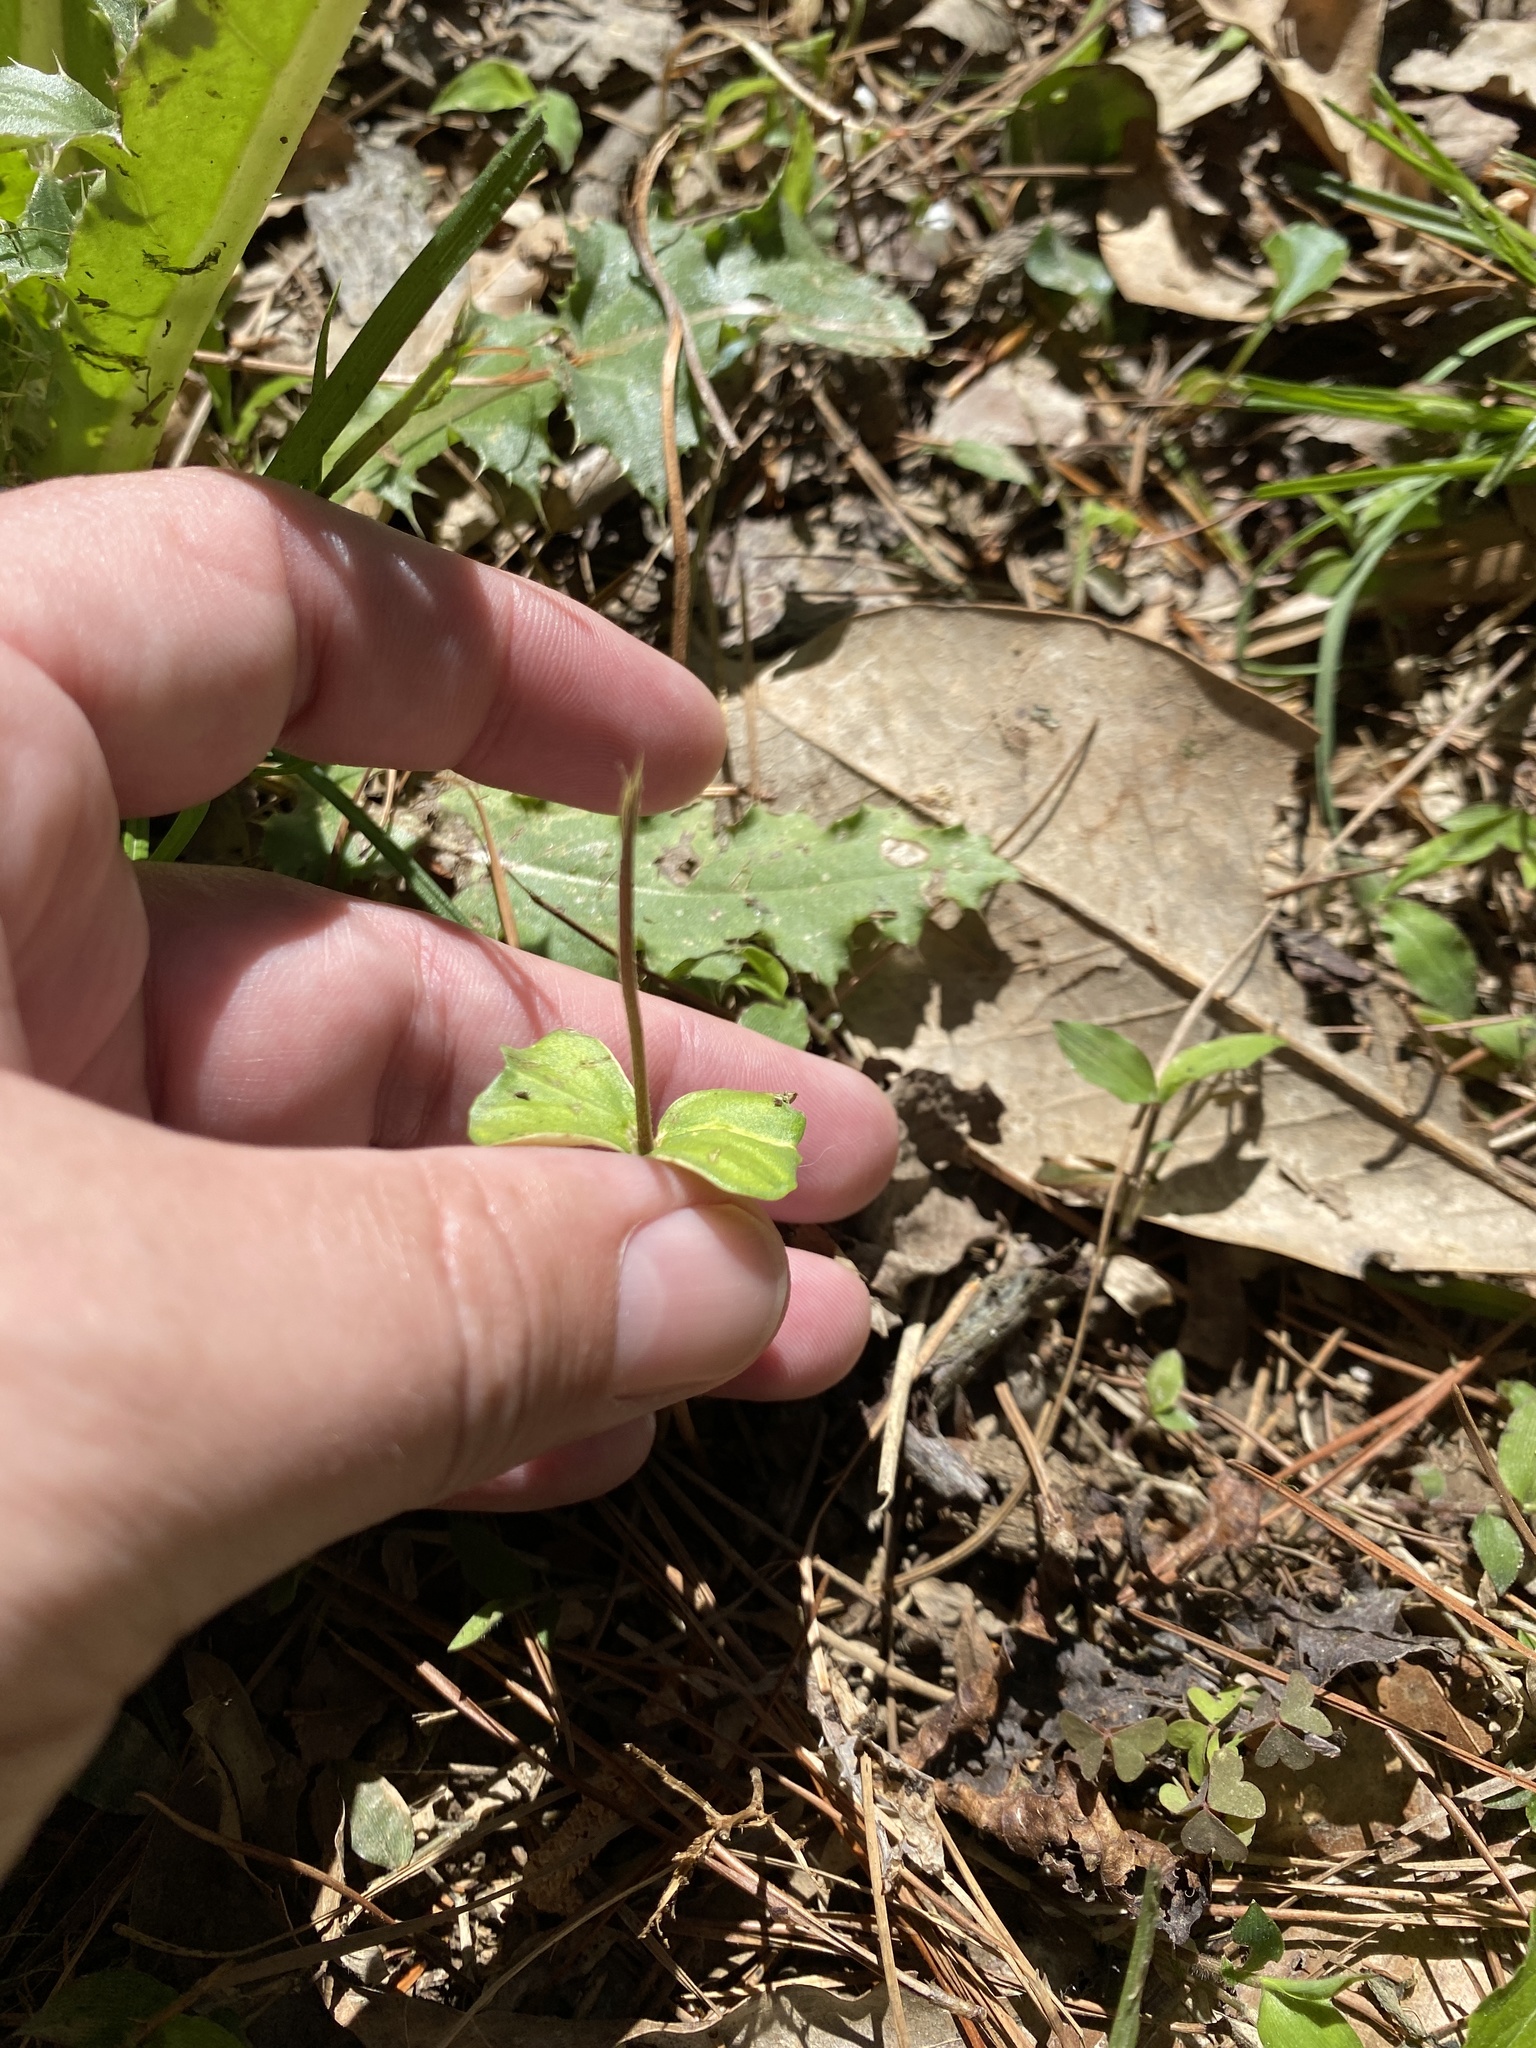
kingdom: Plantae
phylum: Tracheophyta
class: Liliopsida
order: Asparagales
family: Orchidaceae
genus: Neottia
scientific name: Neottia bifolia
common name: Southern twayblade
